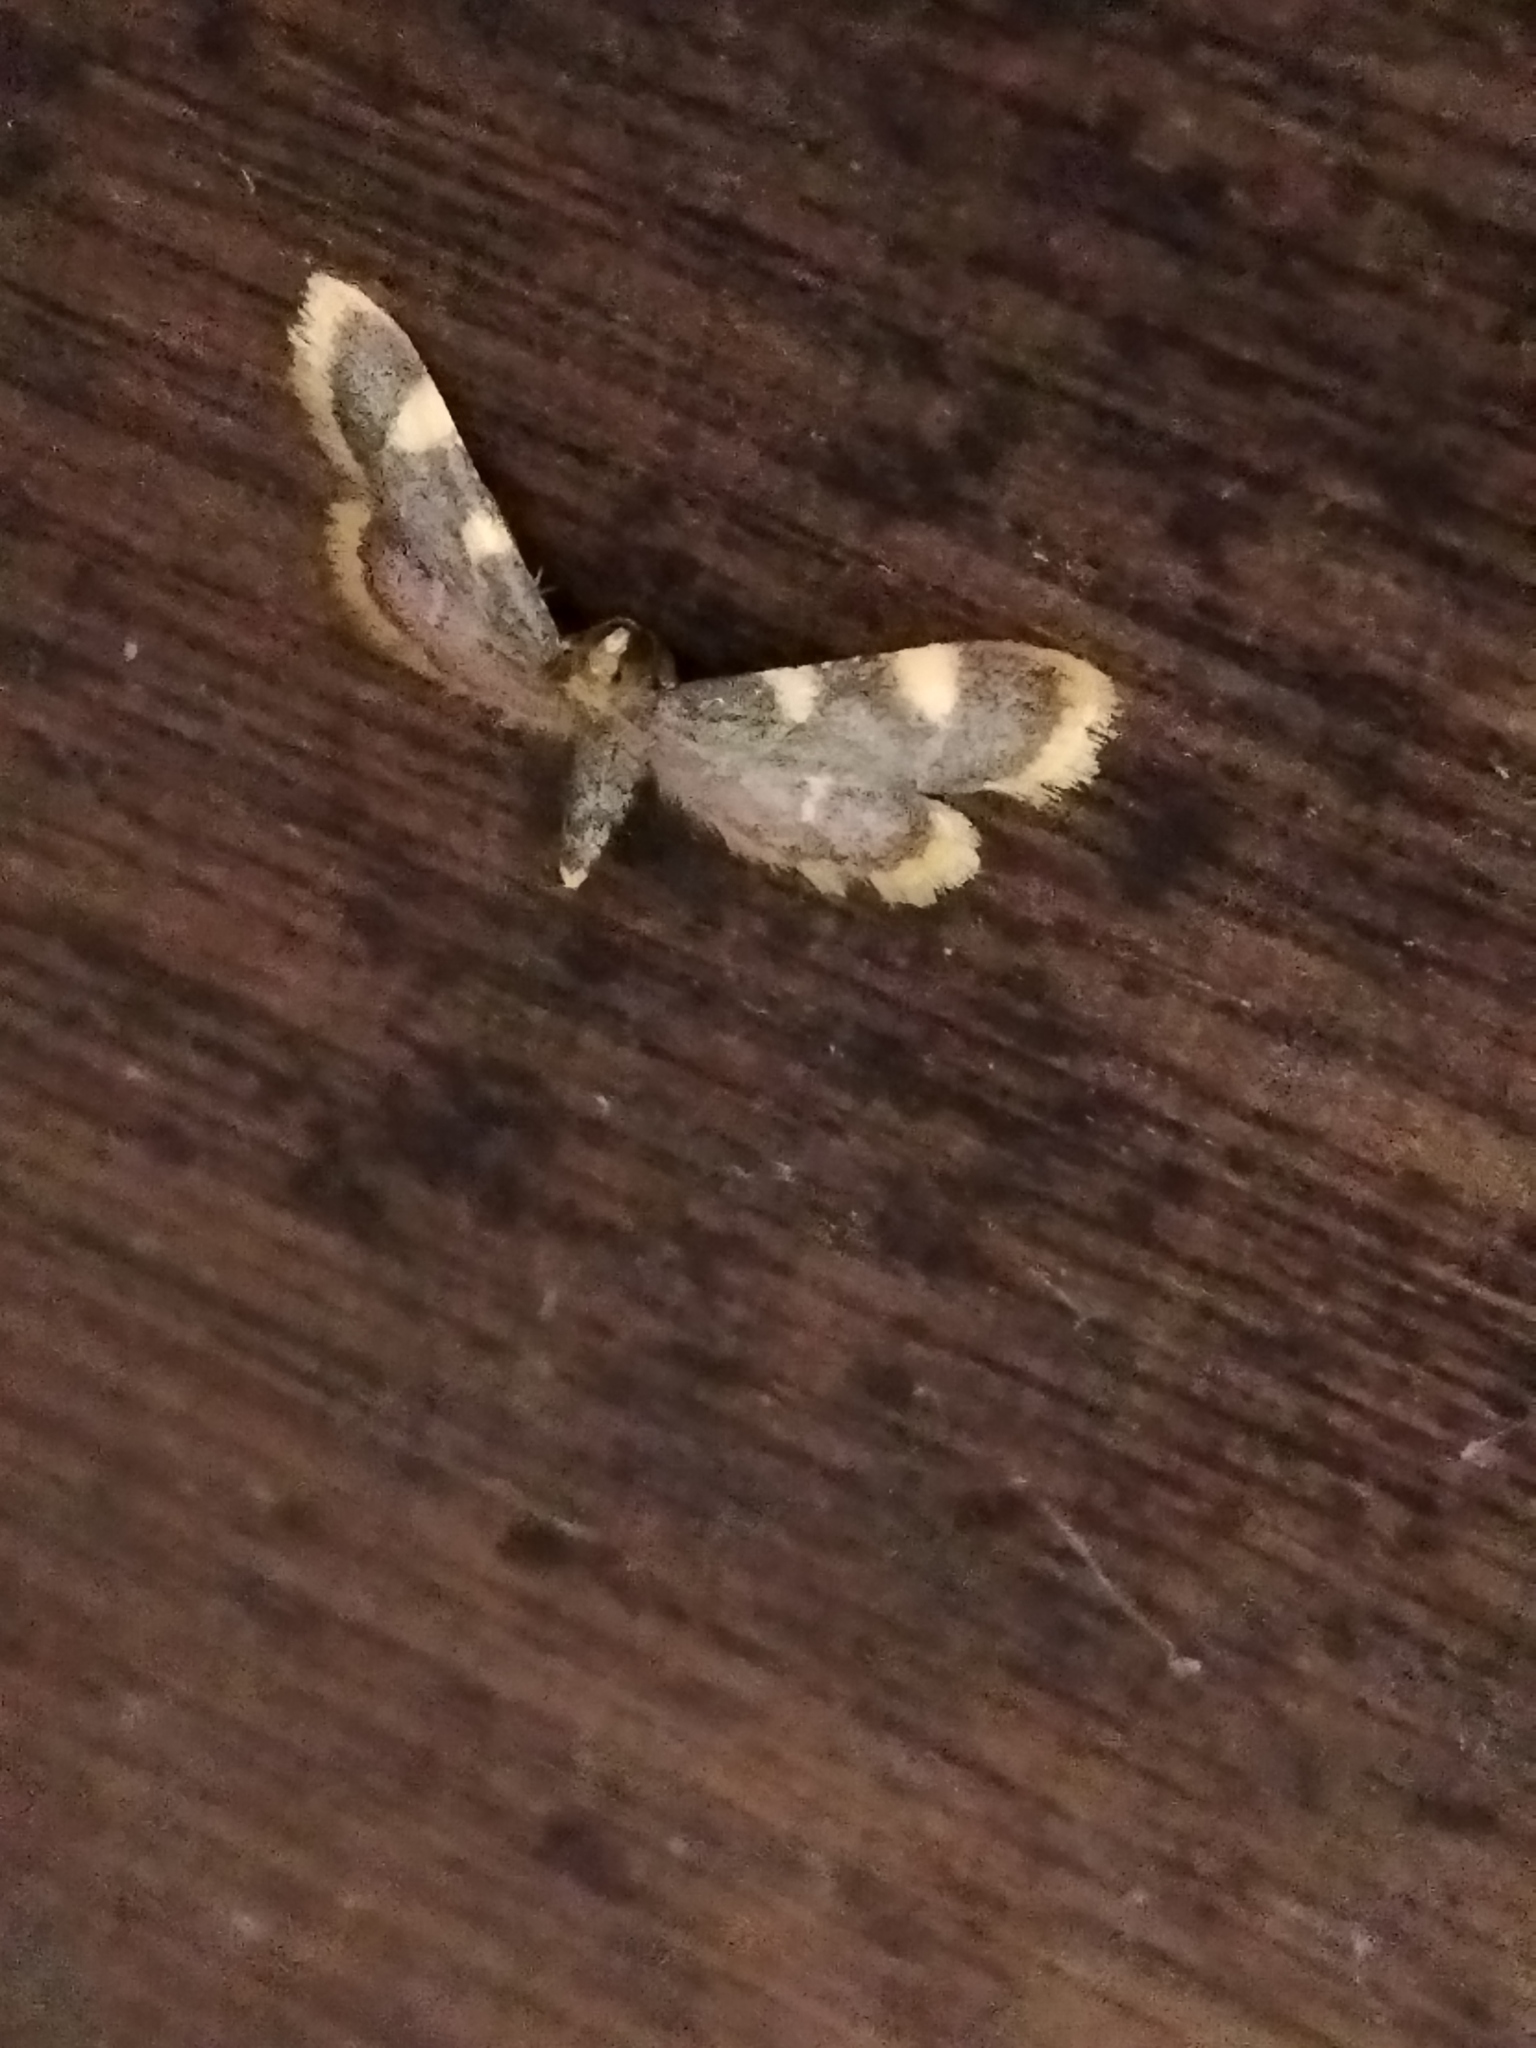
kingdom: Animalia
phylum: Arthropoda
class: Insecta
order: Lepidoptera
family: Pyralidae
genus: Hypsopygia
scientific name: Hypsopygia costalis
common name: Gold triangle
